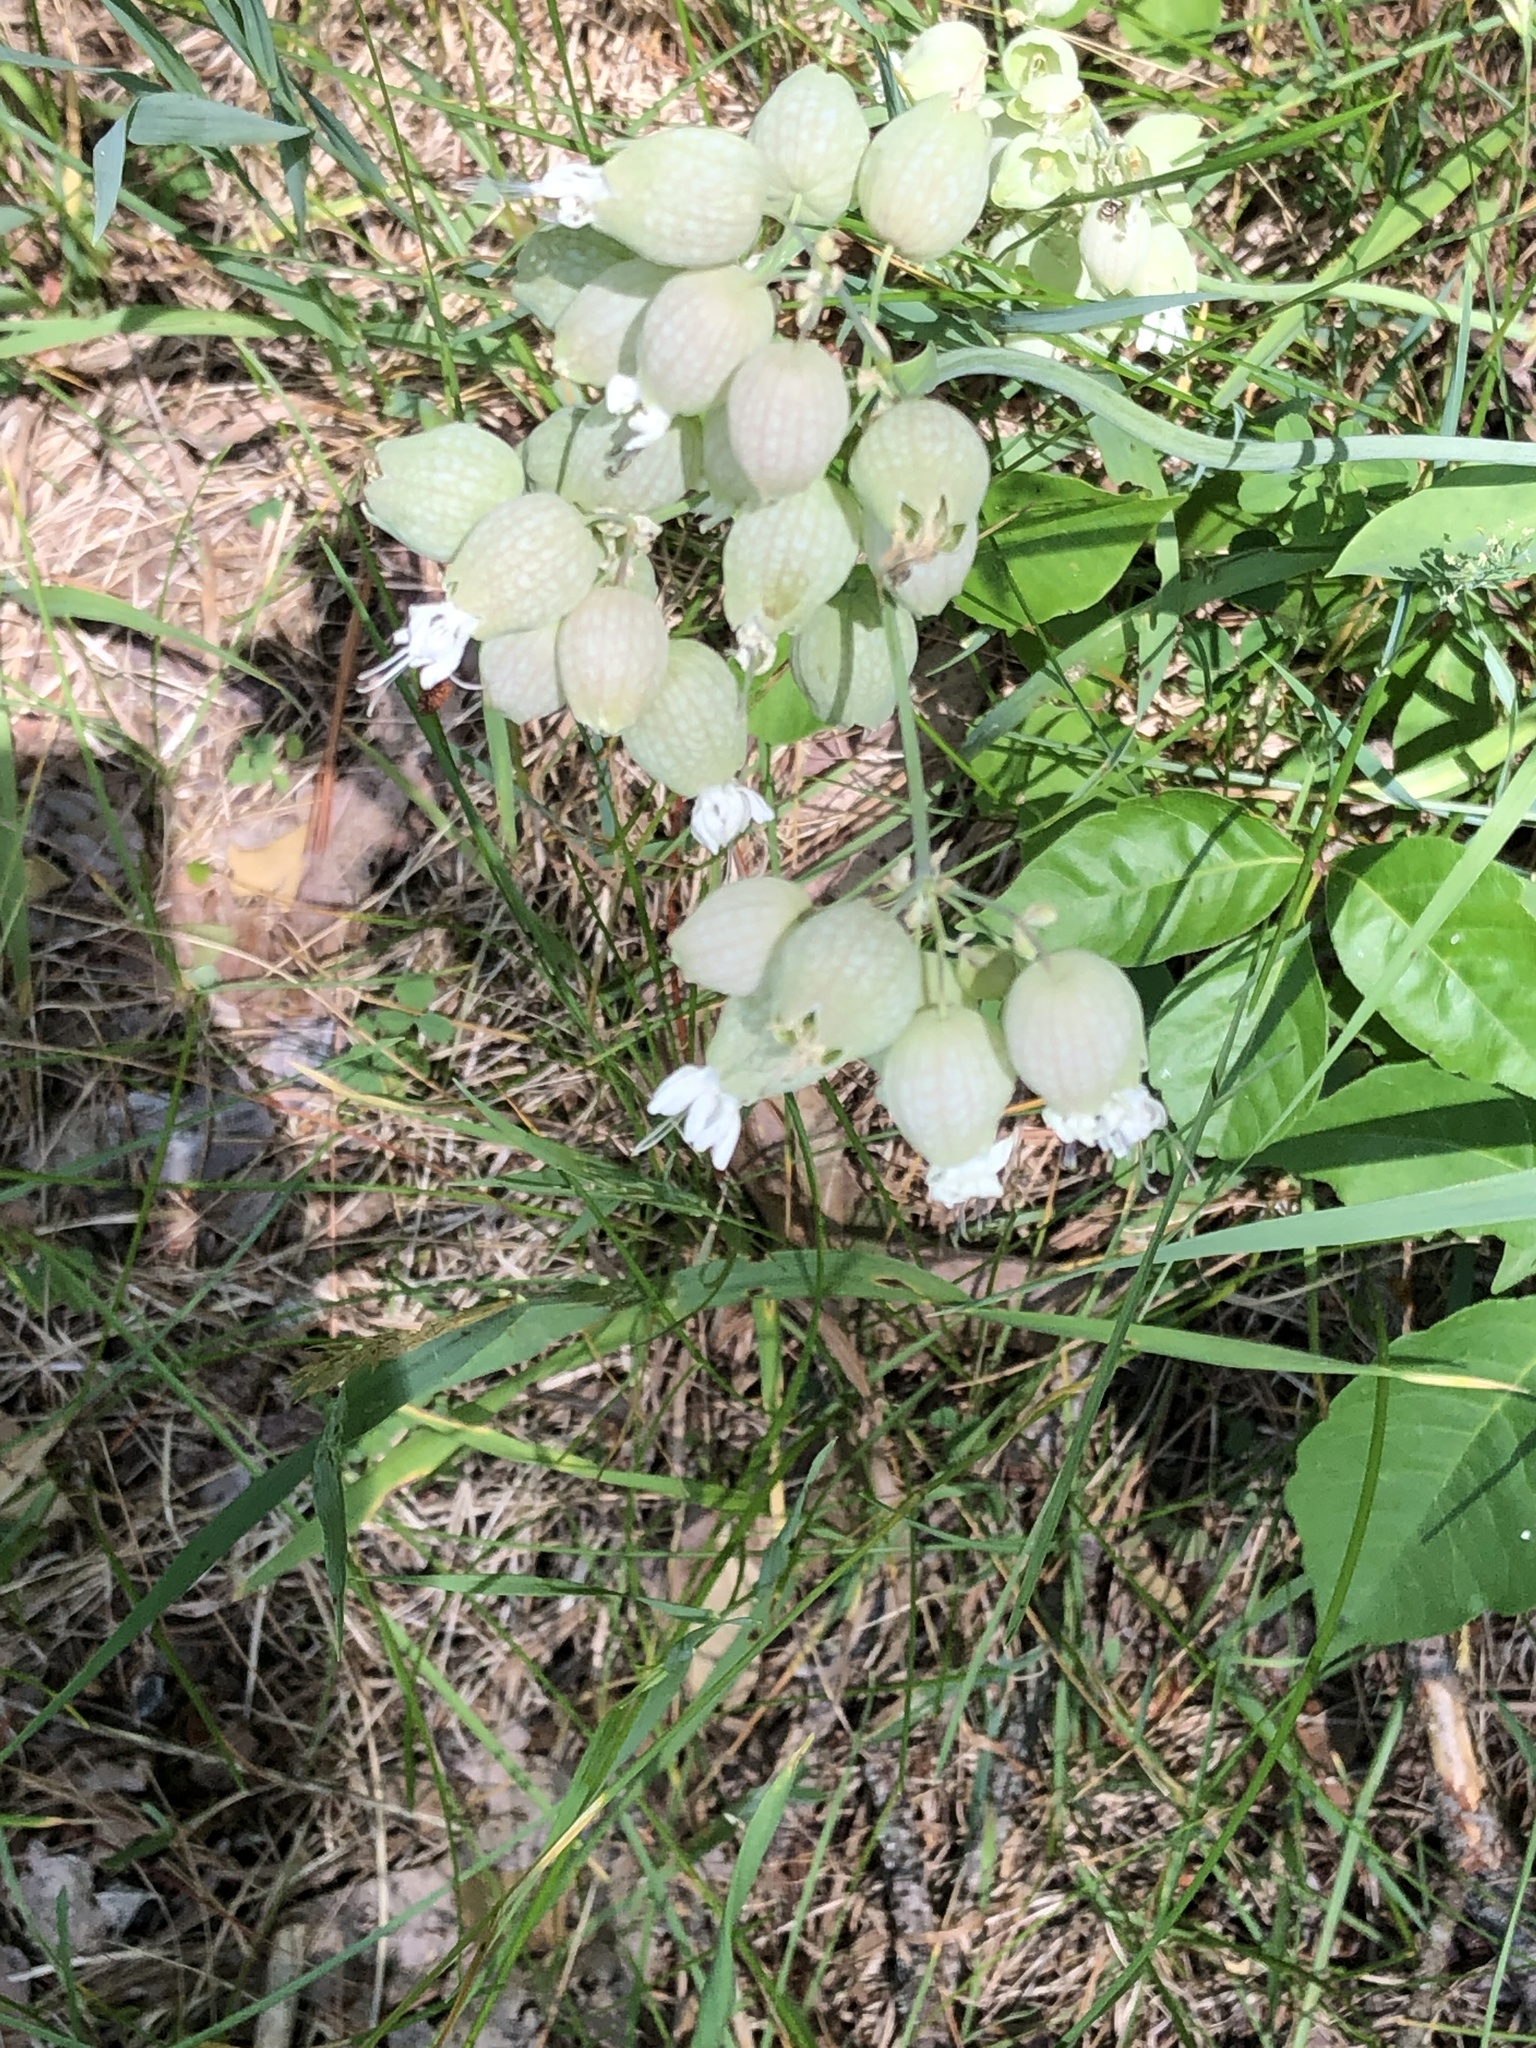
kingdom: Plantae
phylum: Tracheophyta
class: Magnoliopsida
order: Caryophyllales
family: Caryophyllaceae
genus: Silene
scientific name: Silene vulgaris
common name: Bladder campion
